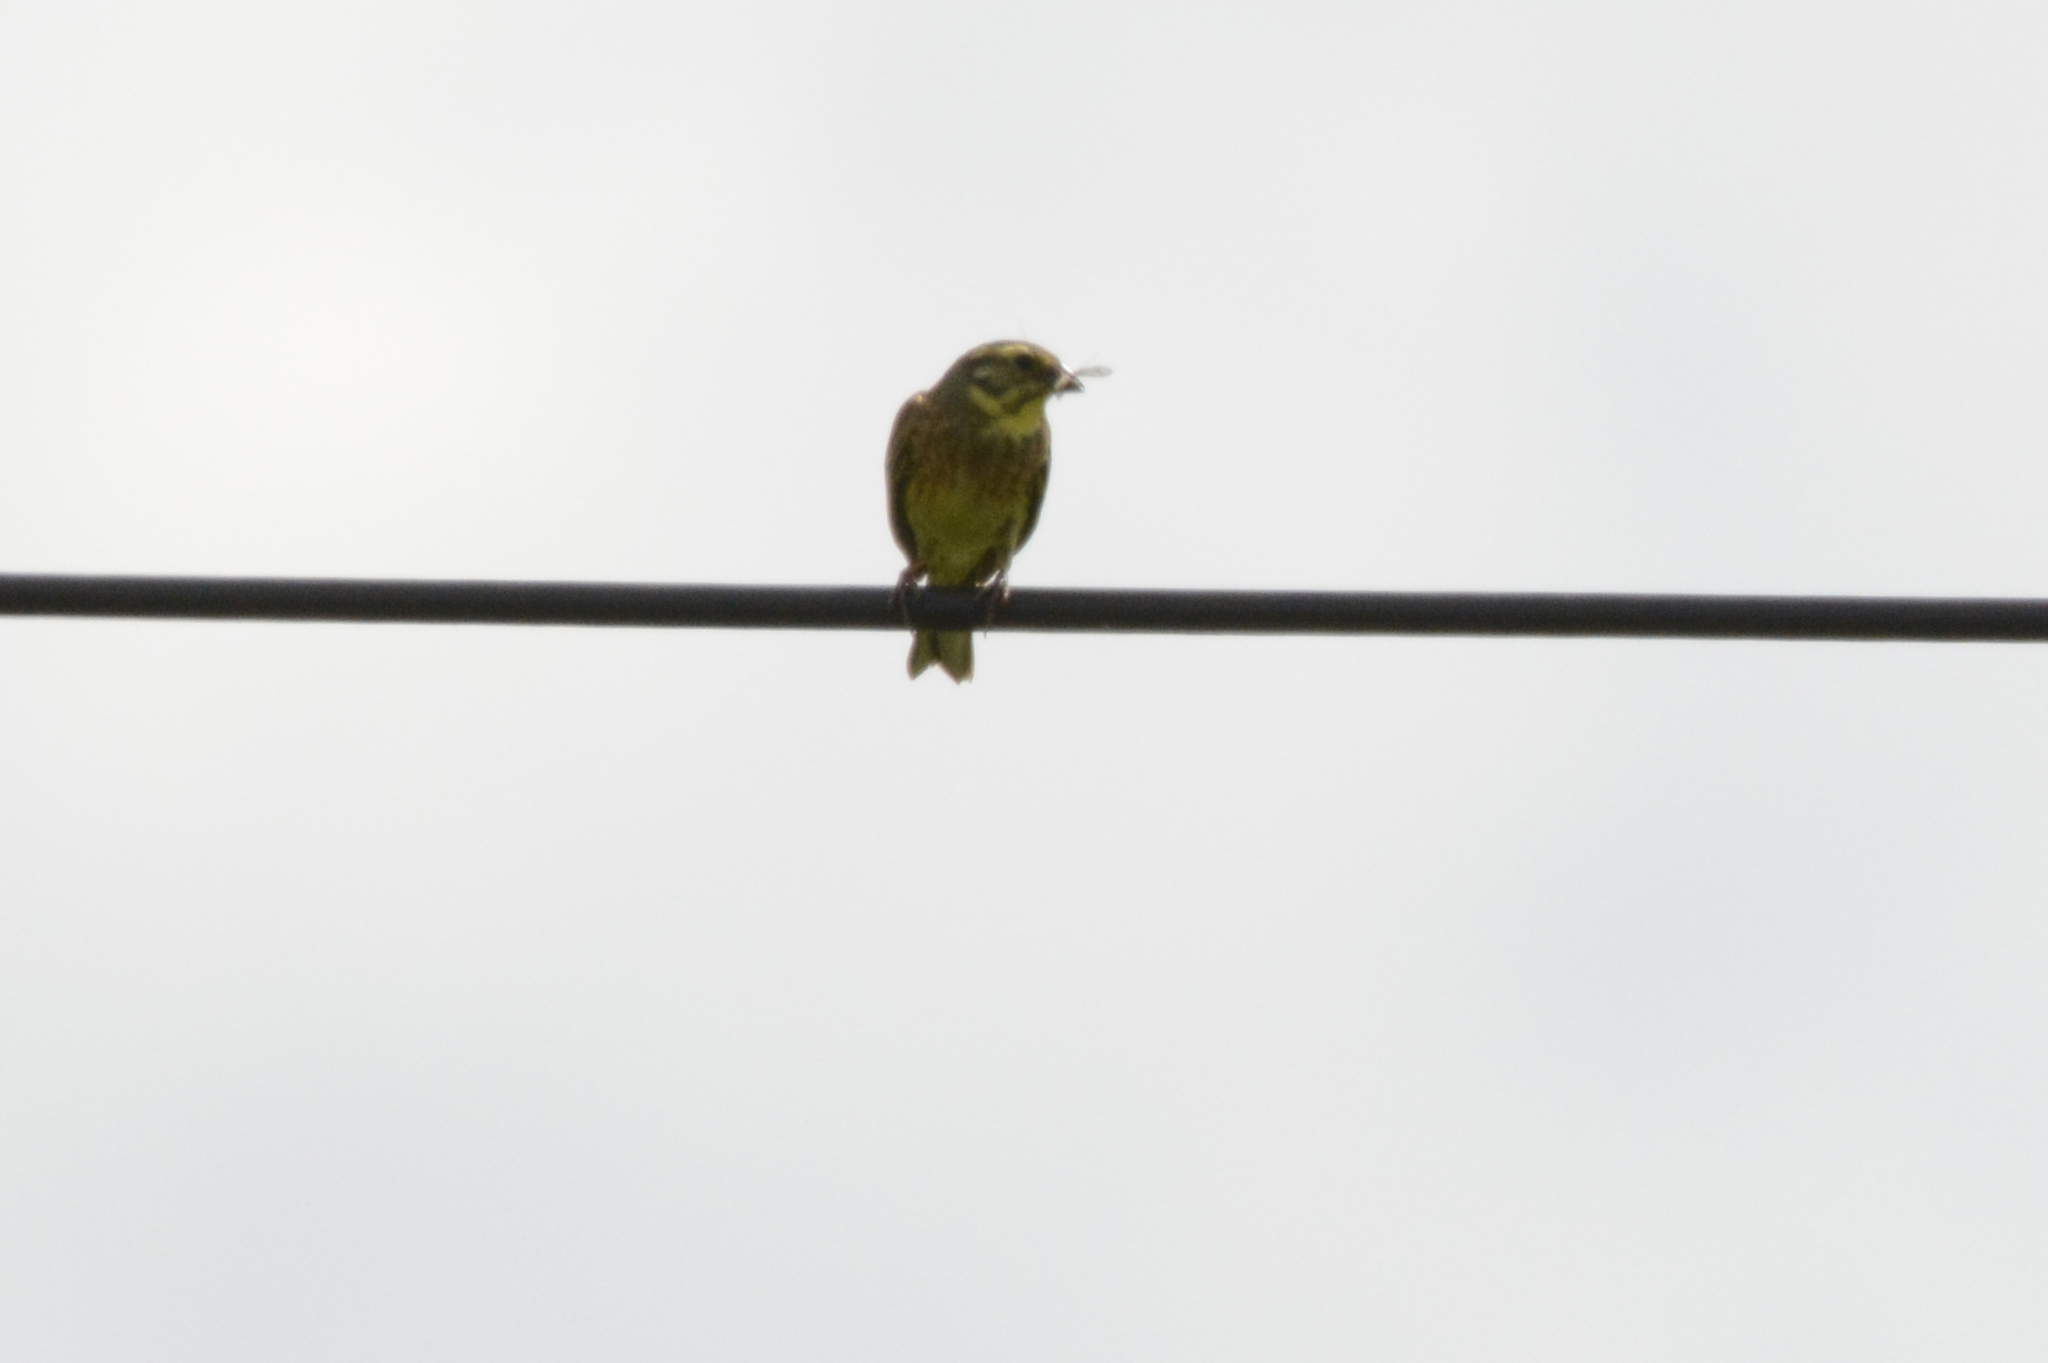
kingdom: Animalia
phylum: Chordata
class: Aves
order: Passeriformes
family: Emberizidae
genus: Emberiza
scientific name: Emberiza citrinella
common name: Yellowhammer
